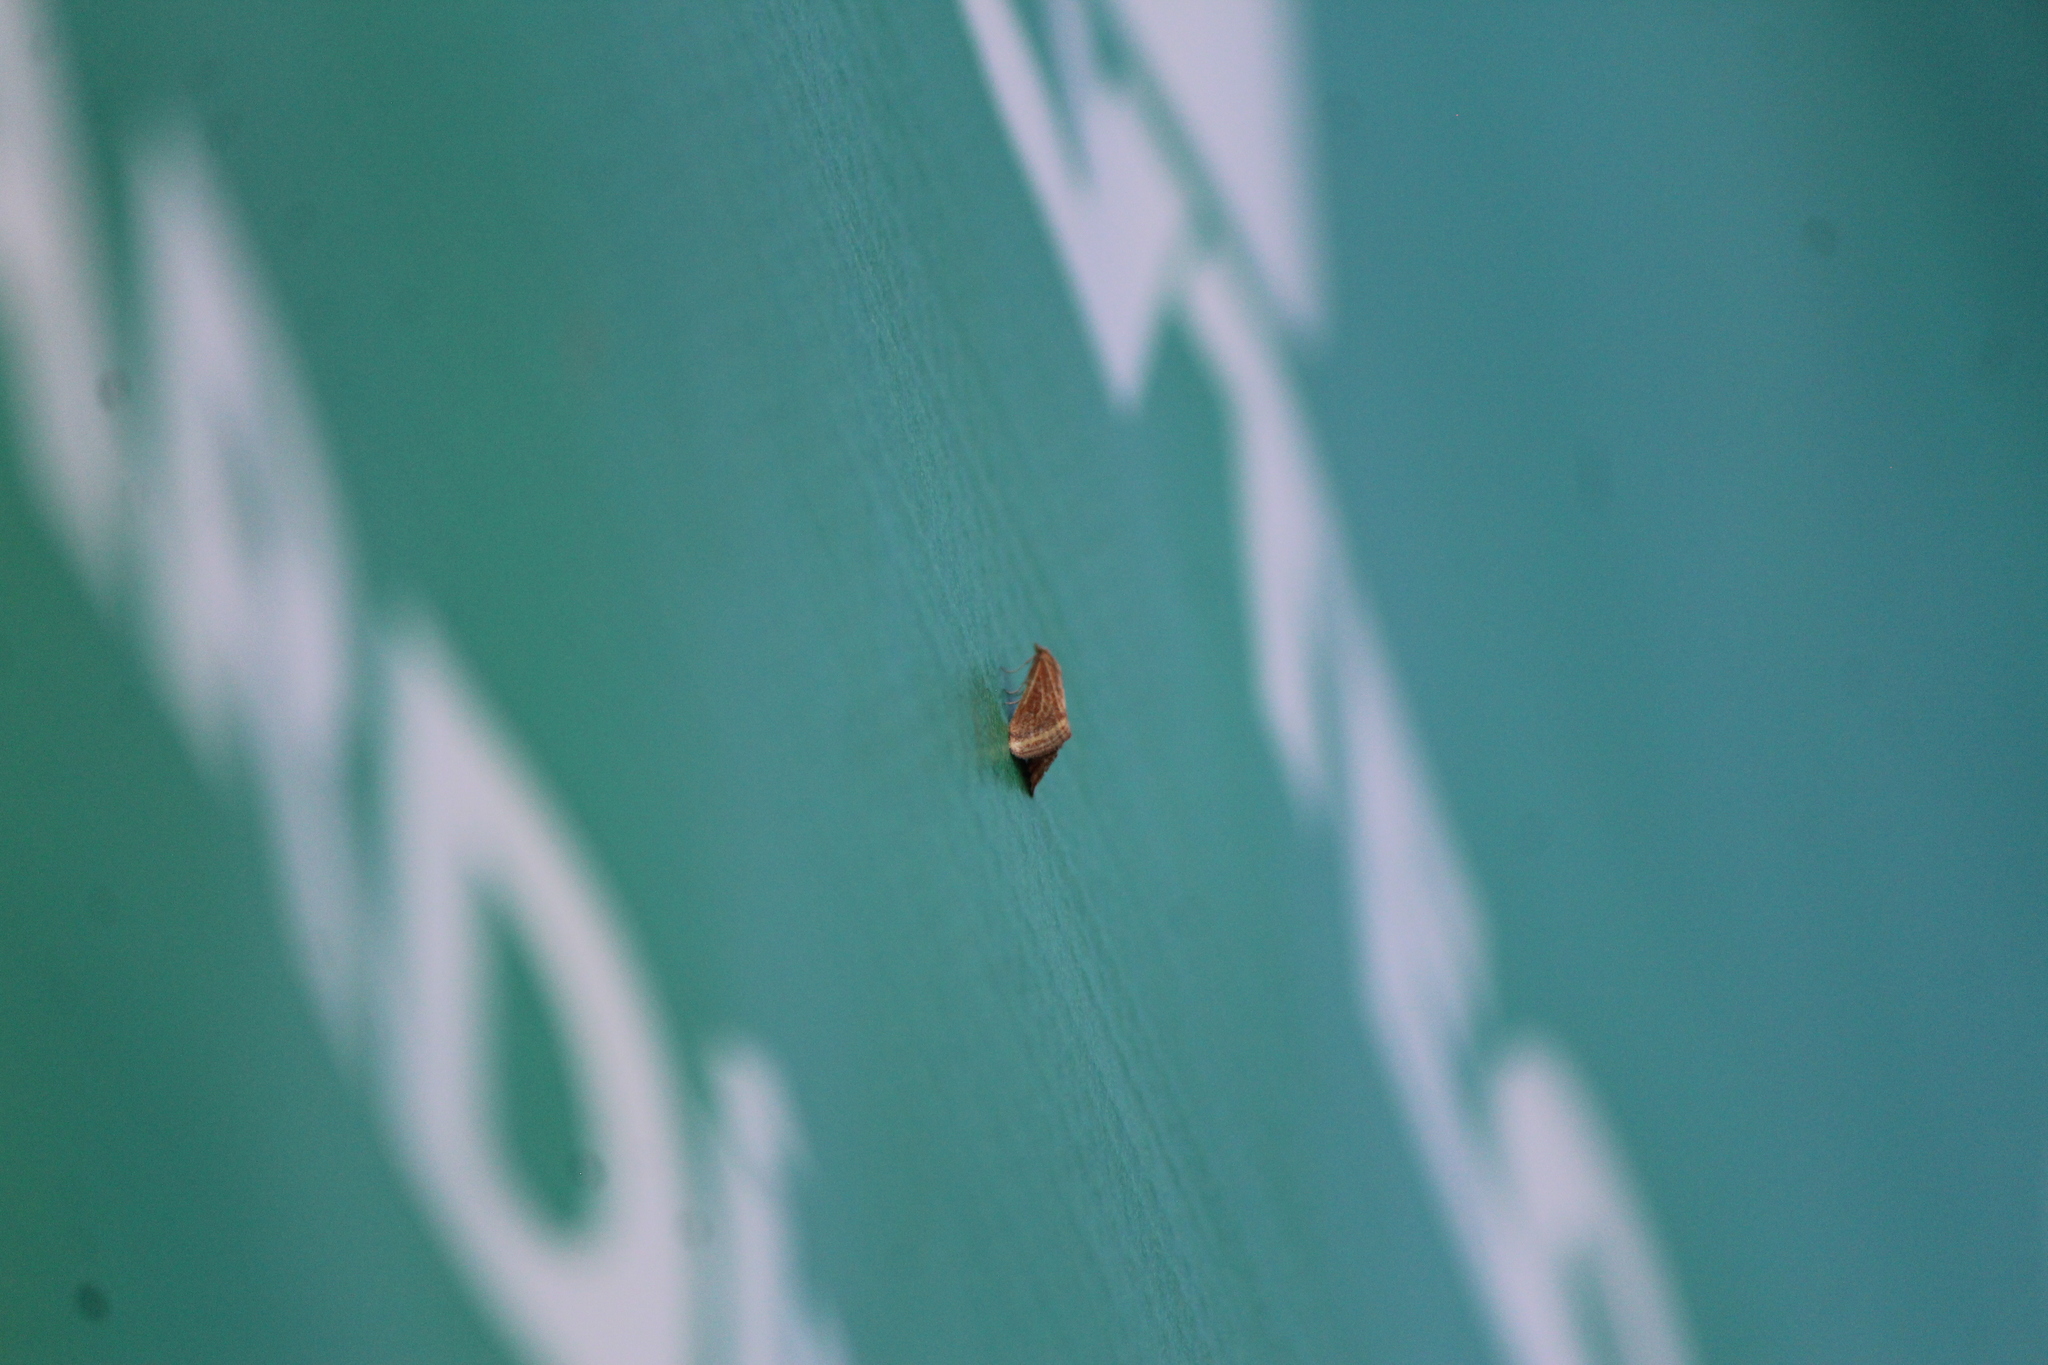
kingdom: Animalia
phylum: Arthropoda
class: Insecta
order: Lepidoptera
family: Crambidae
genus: Microtheoris
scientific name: Microtheoris ophionalis
